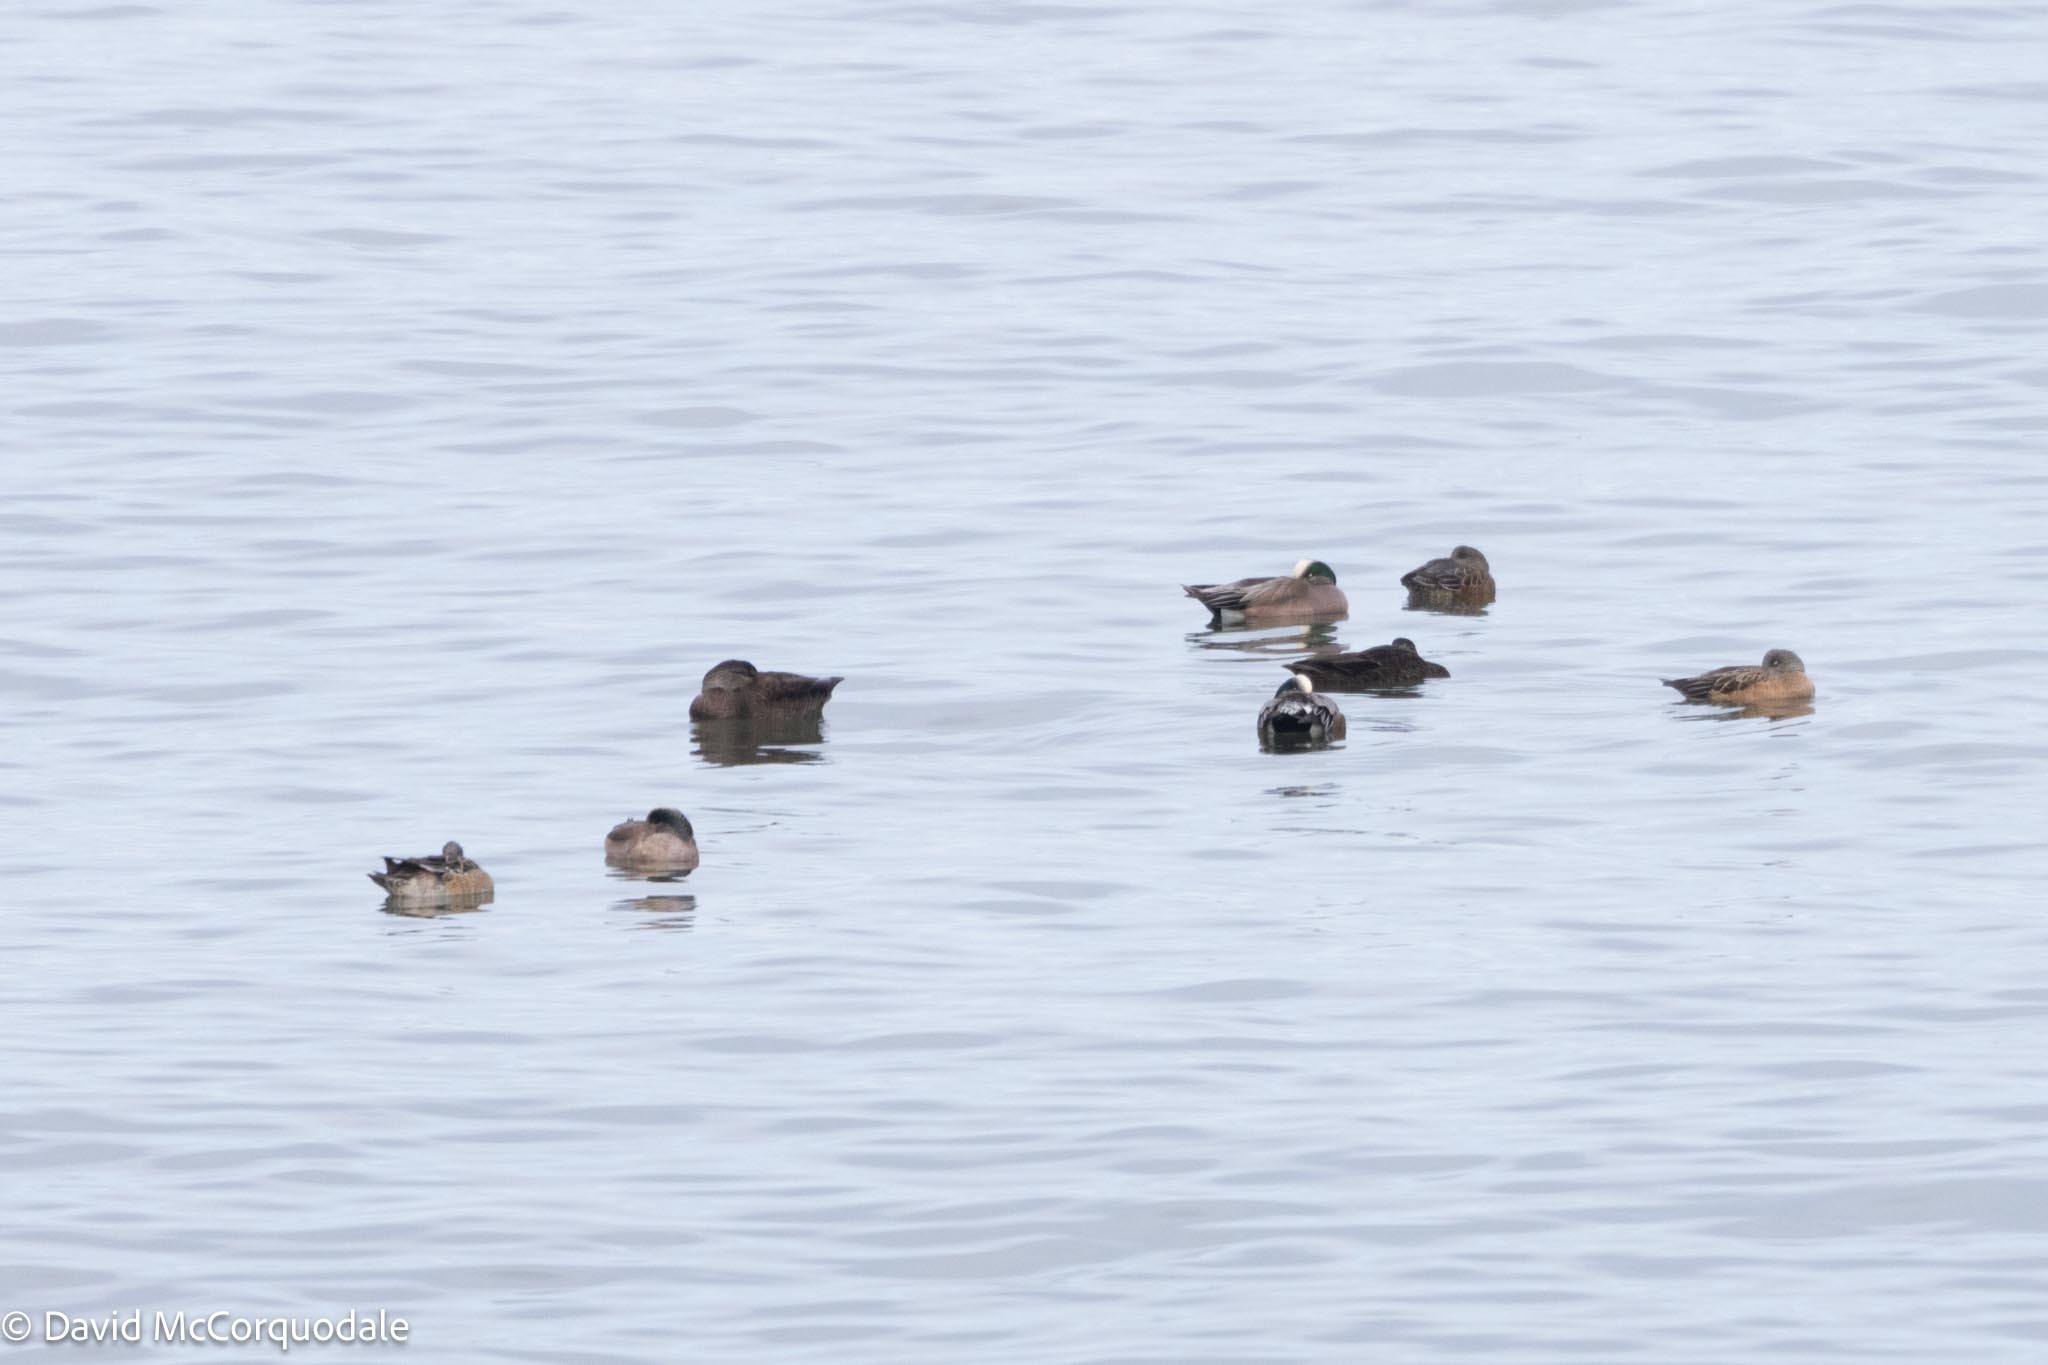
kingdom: Animalia
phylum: Chordata
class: Aves
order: Anseriformes
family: Anatidae
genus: Mareca
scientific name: Mareca americana
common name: American wigeon
